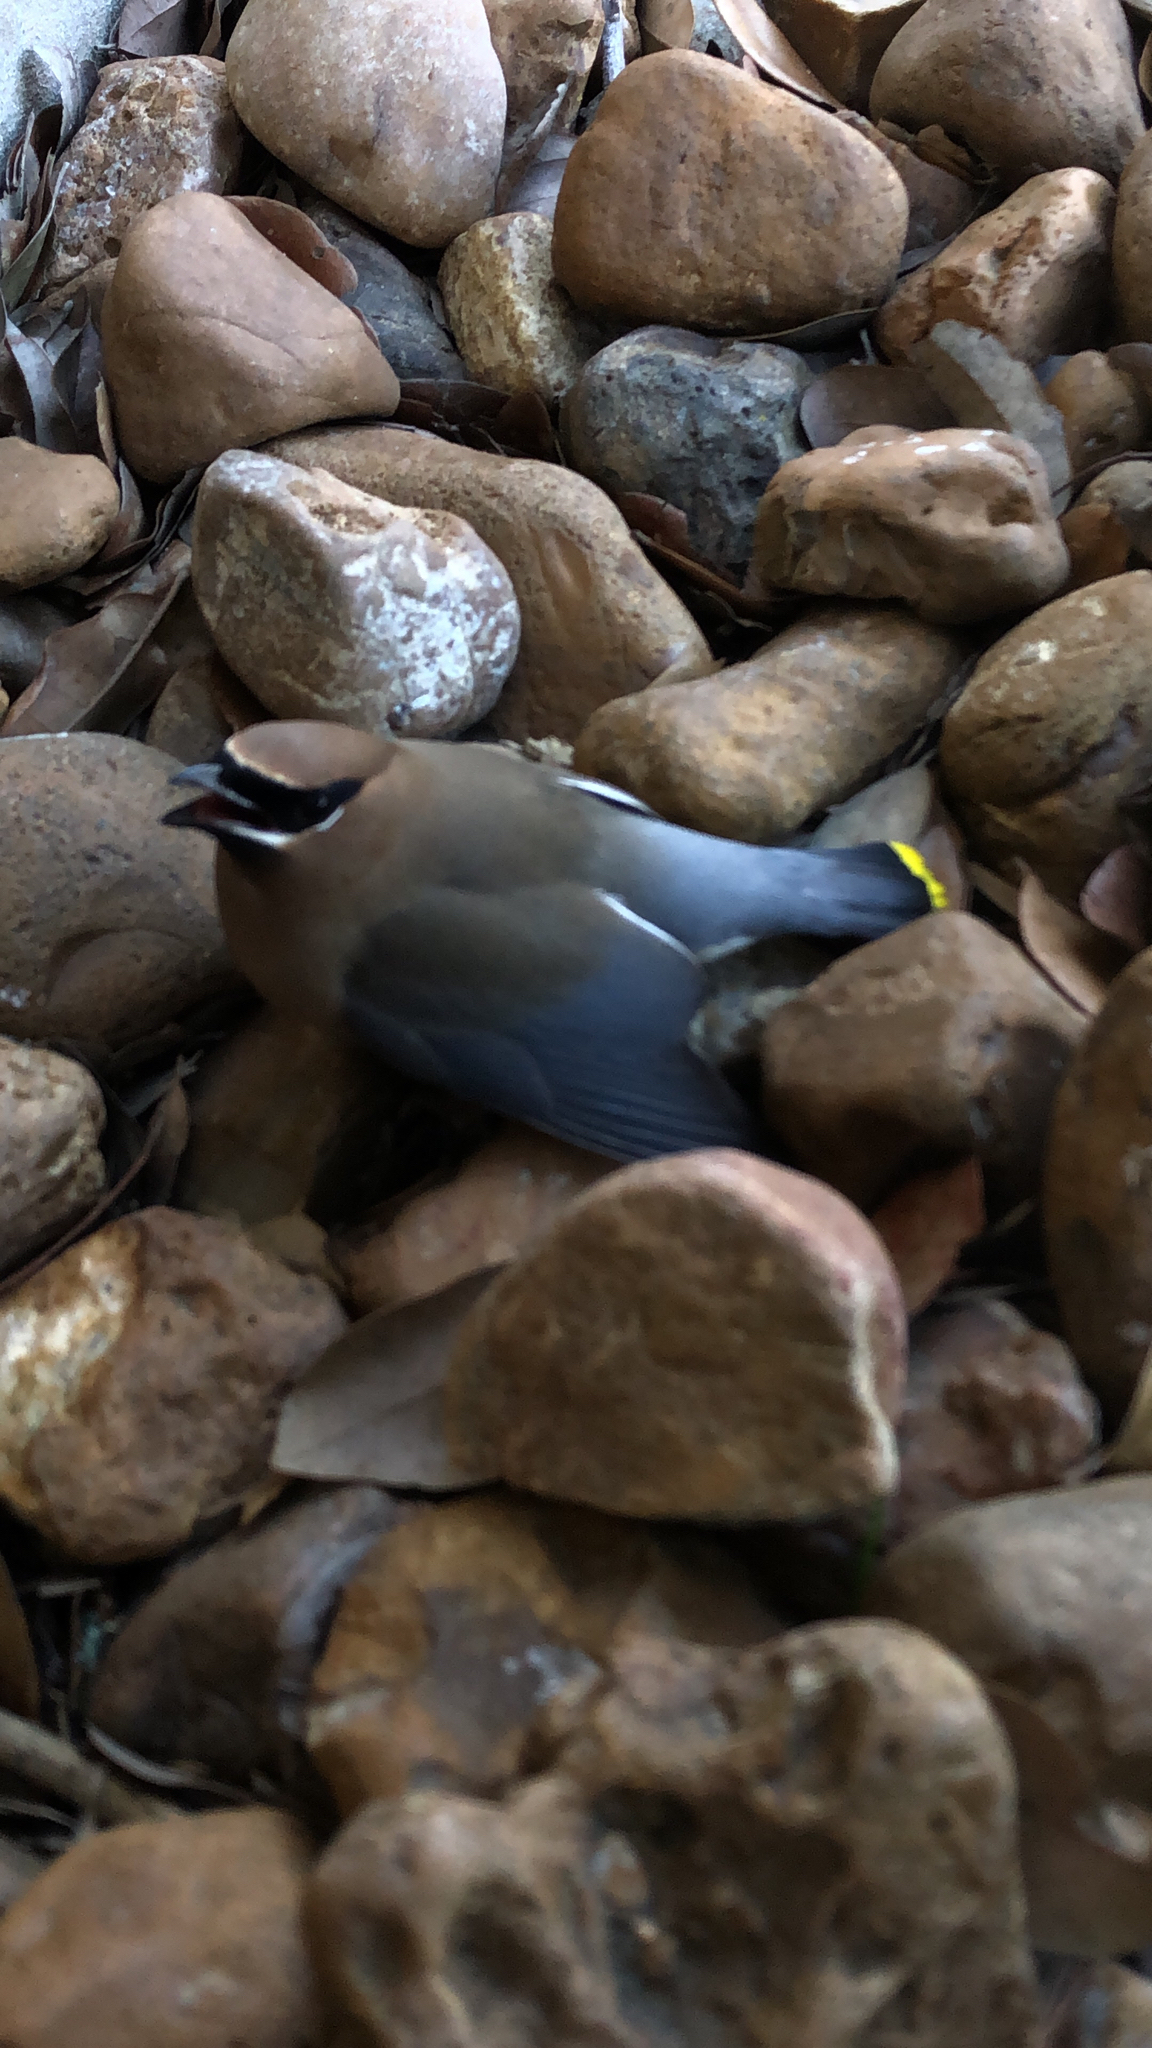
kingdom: Animalia
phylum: Chordata
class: Aves
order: Passeriformes
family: Bombycillidae
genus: Bombycilla
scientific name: Bombycilla cedrorum
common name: Cedar waxwing
